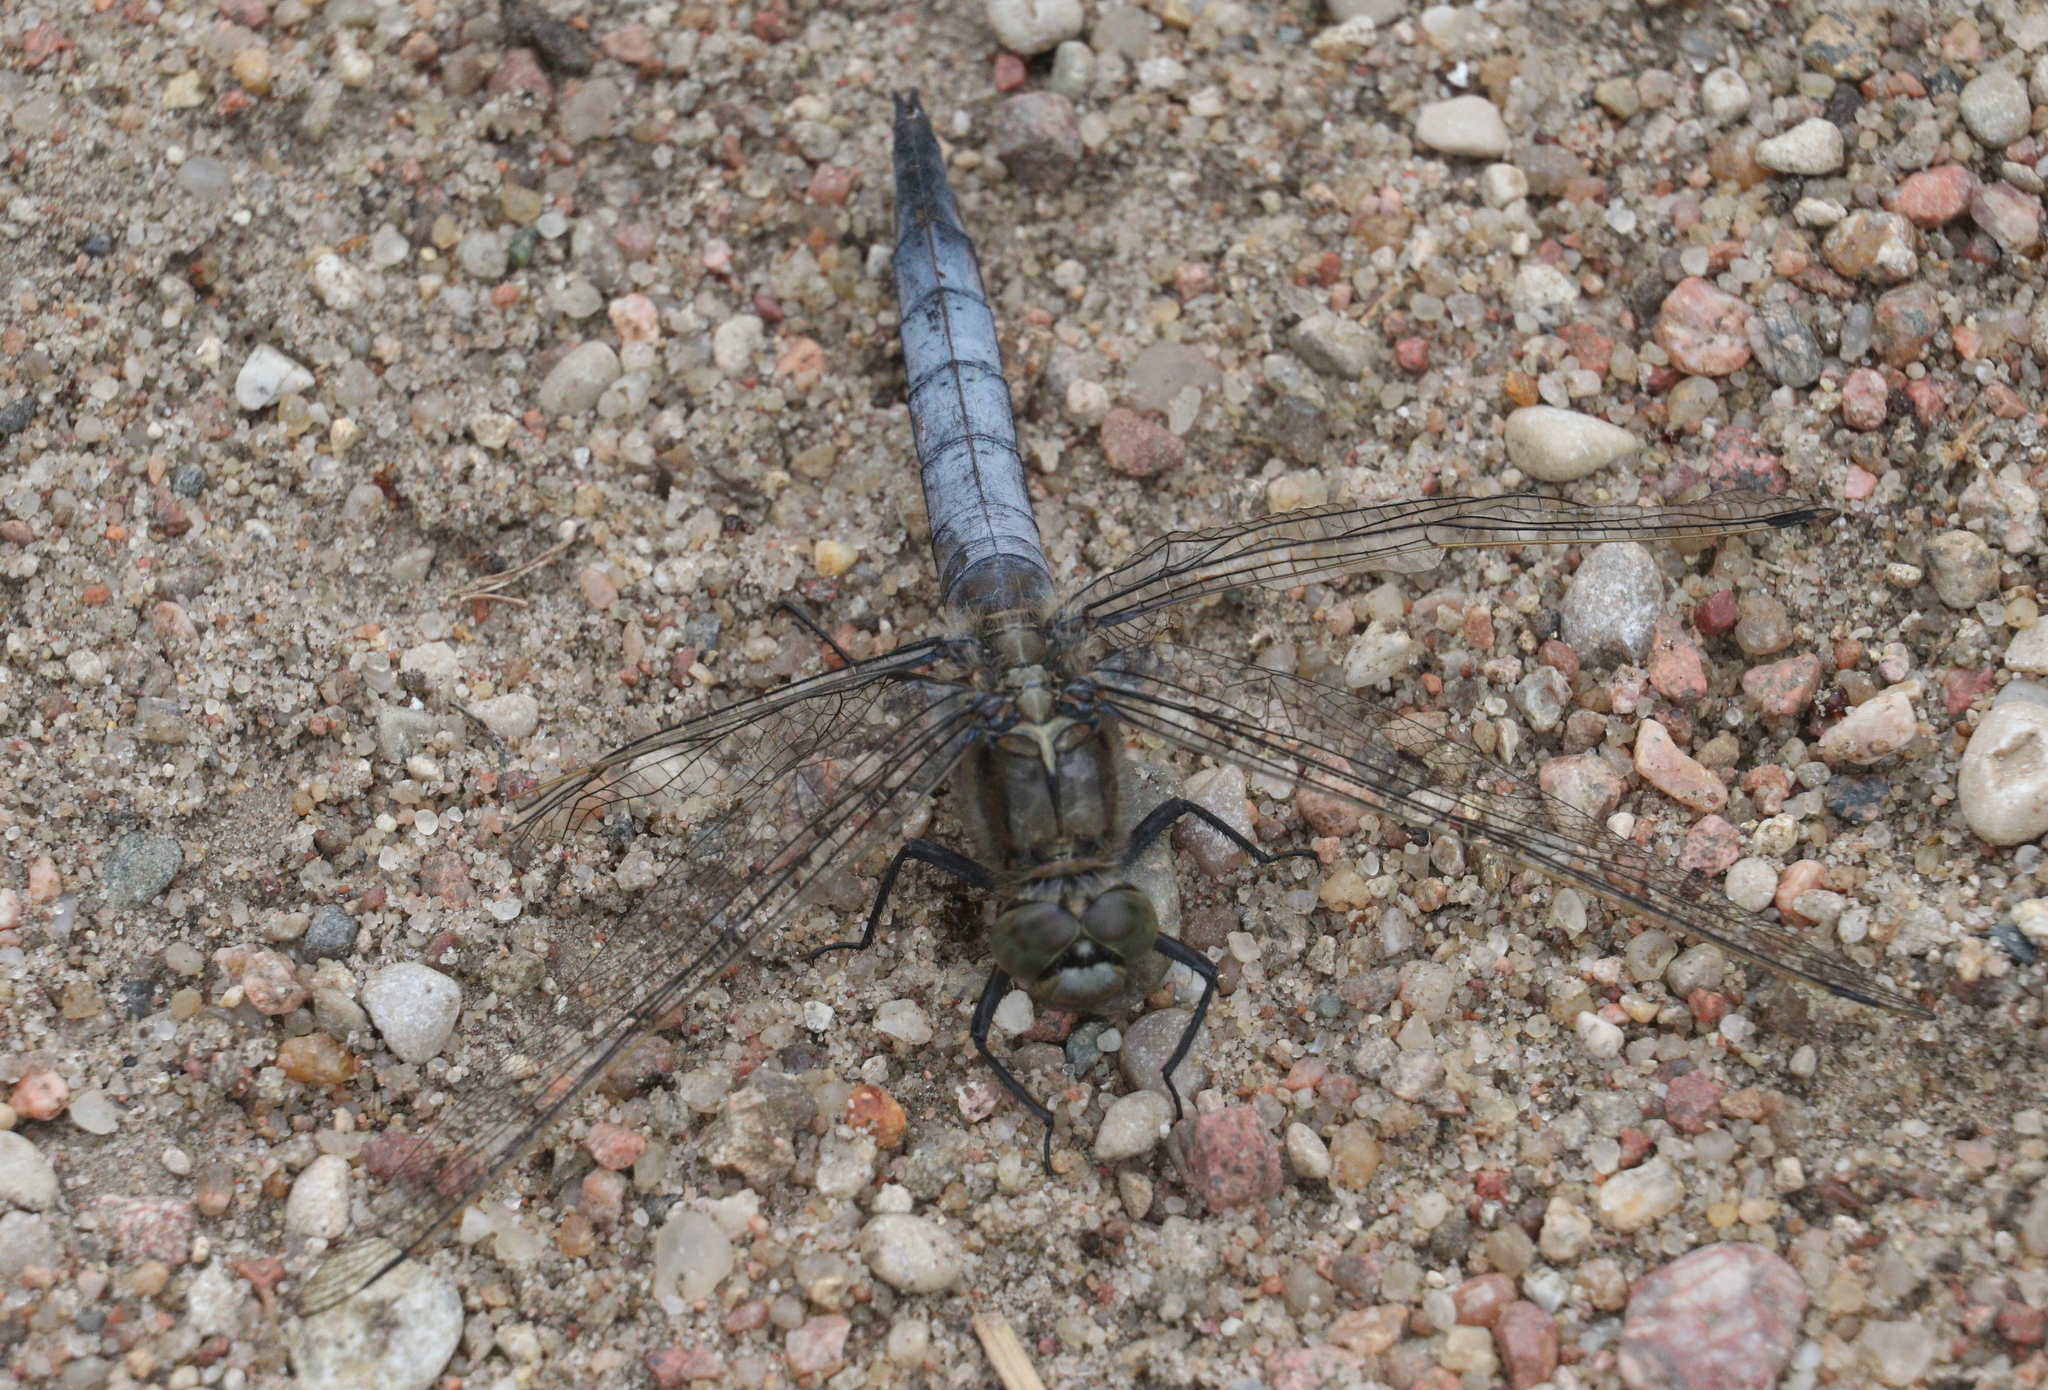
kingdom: Animalia
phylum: Arthropoda
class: Insecta
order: Odonata
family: Libellulidae
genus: Orthetrum
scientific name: Orthetrum cancellatum
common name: Black-tailed skimmer
